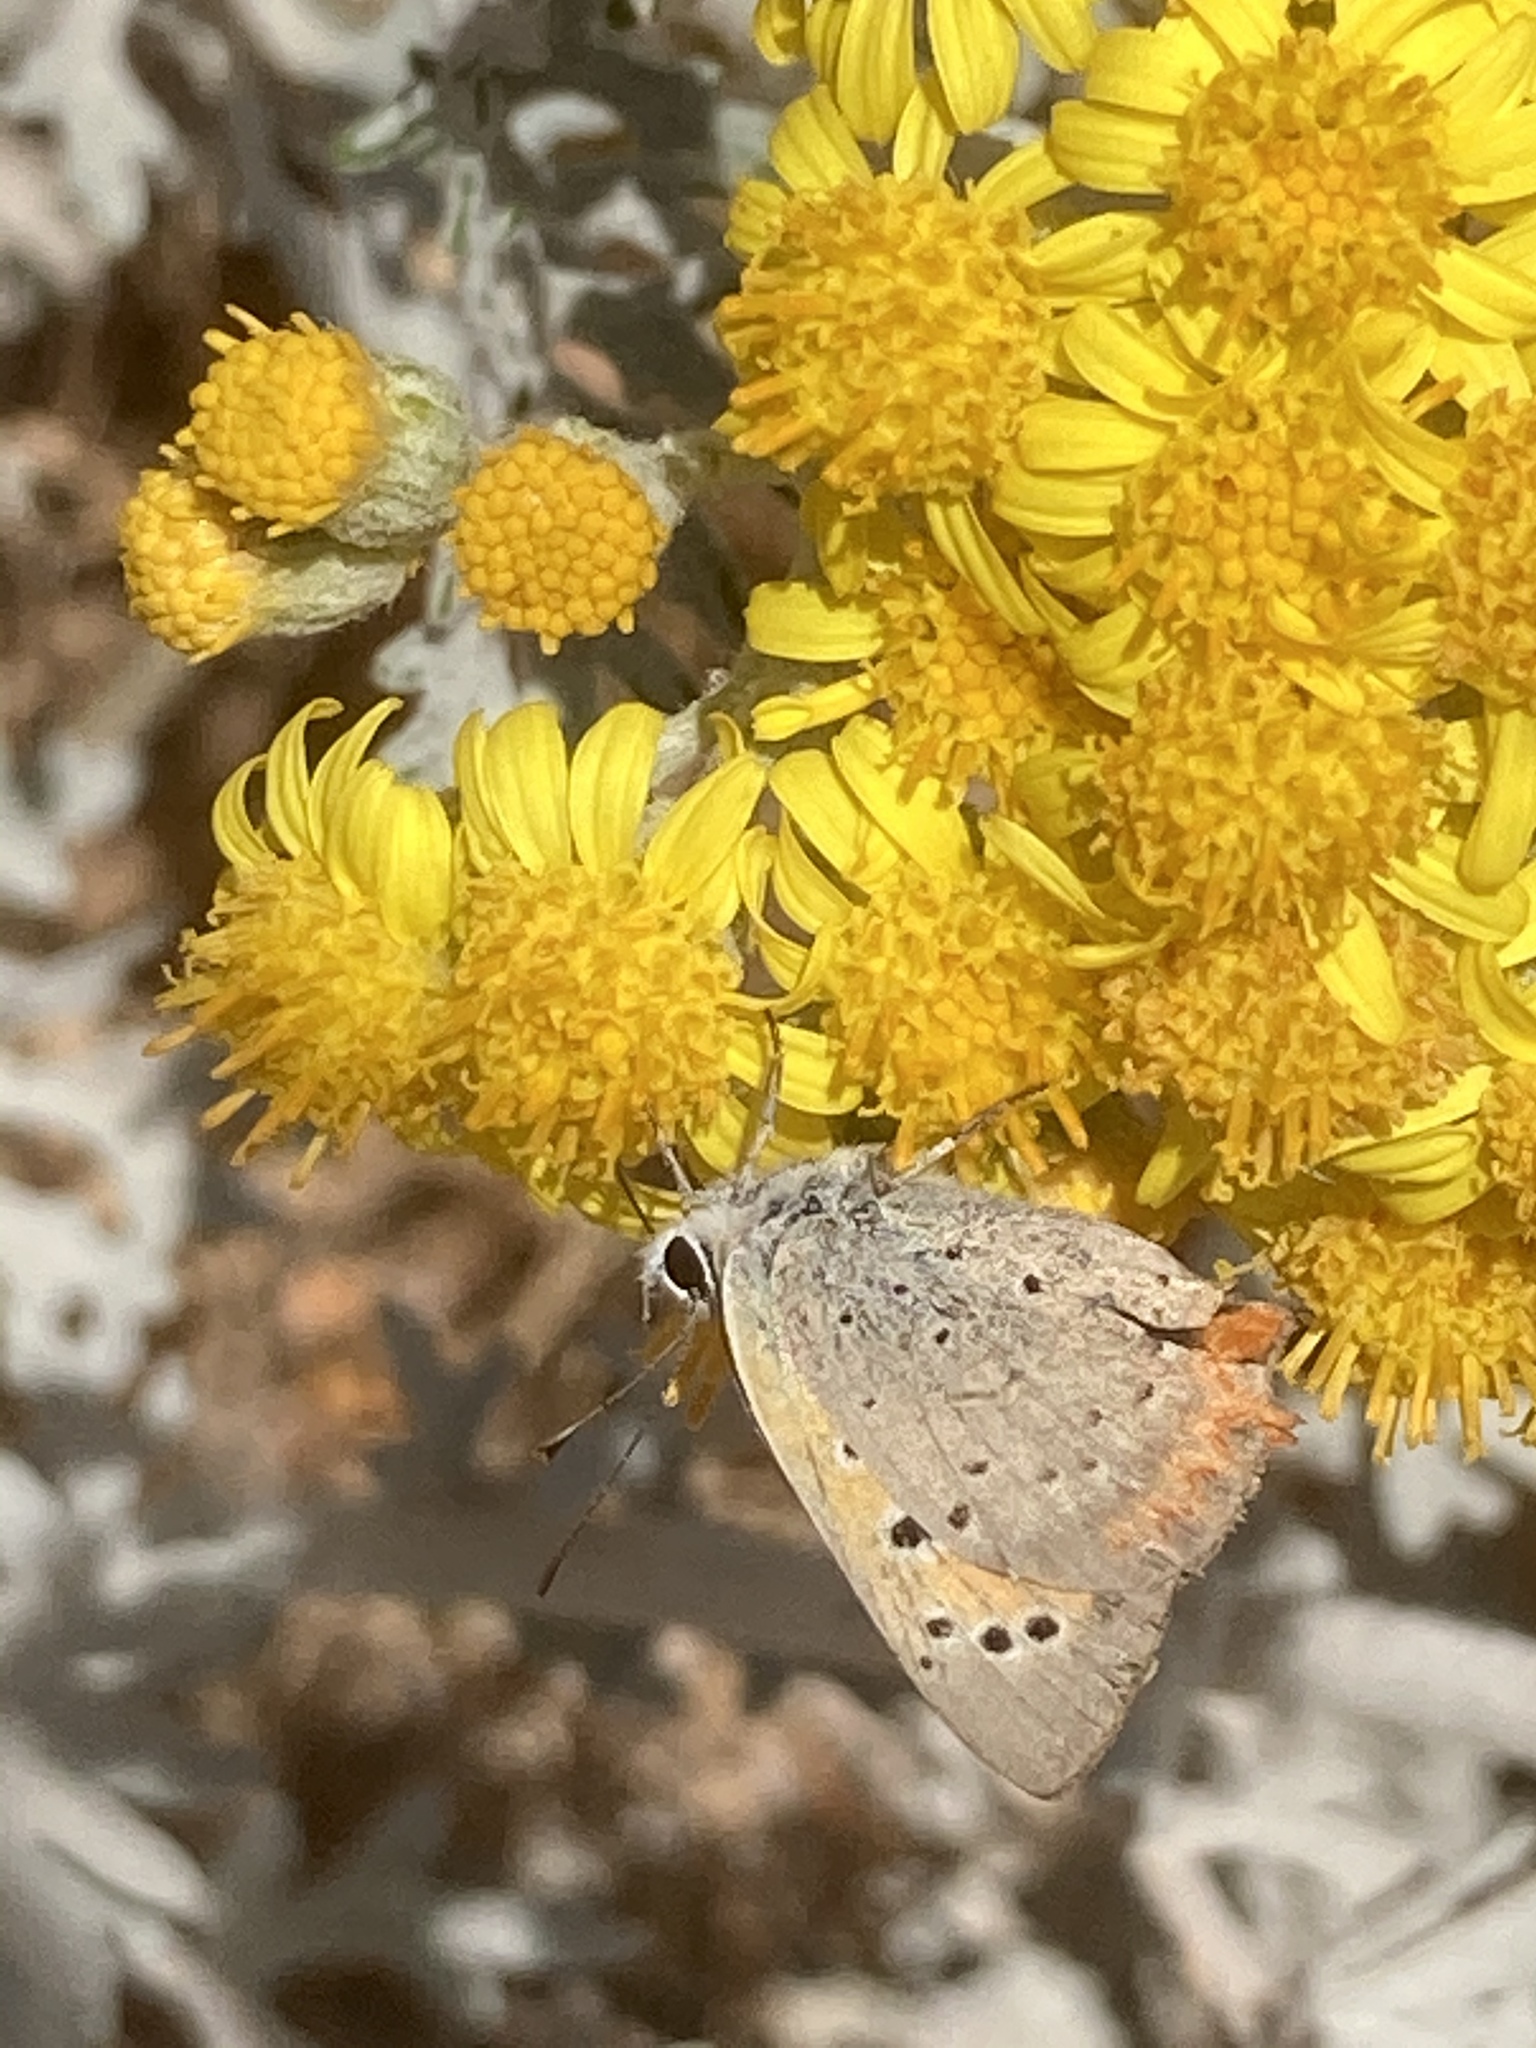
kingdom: Animalia
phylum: Arthropoda
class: Insecta
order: Lepidoptera
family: Lycaenidae
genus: Lycaena
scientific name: Lycaena phlaeas
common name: Small copper
